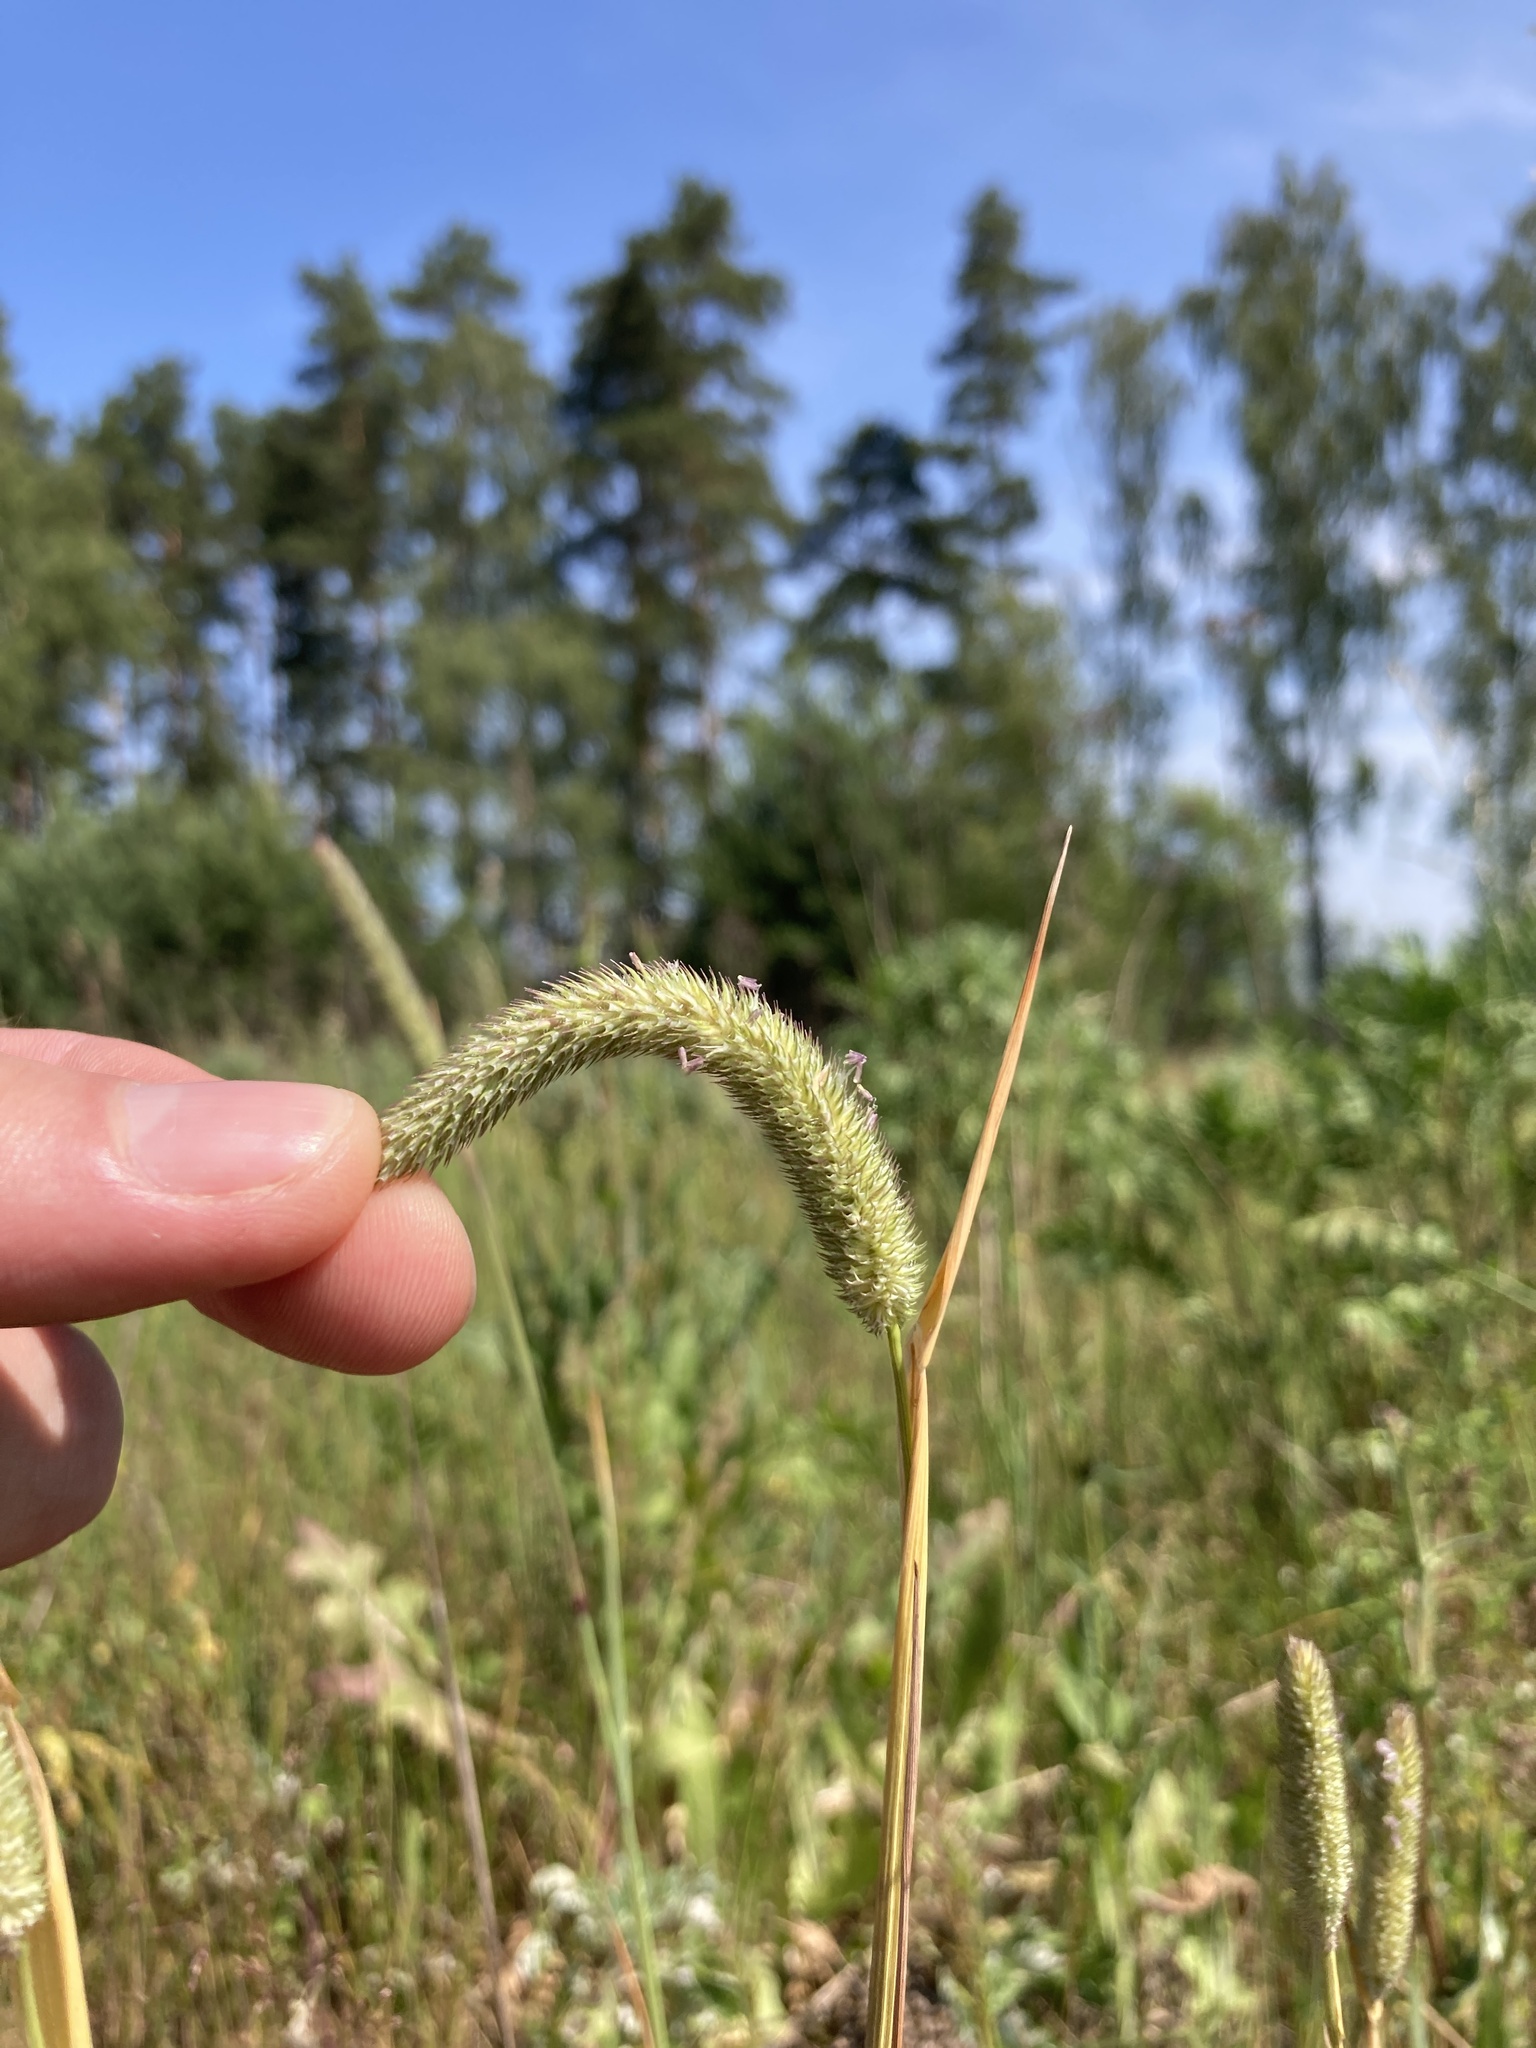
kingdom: Plantae
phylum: Tracheophyta
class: Liliopsida
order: Poales
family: Poaceae
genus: Phleum
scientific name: Phleum pratense
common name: Timothy grass
